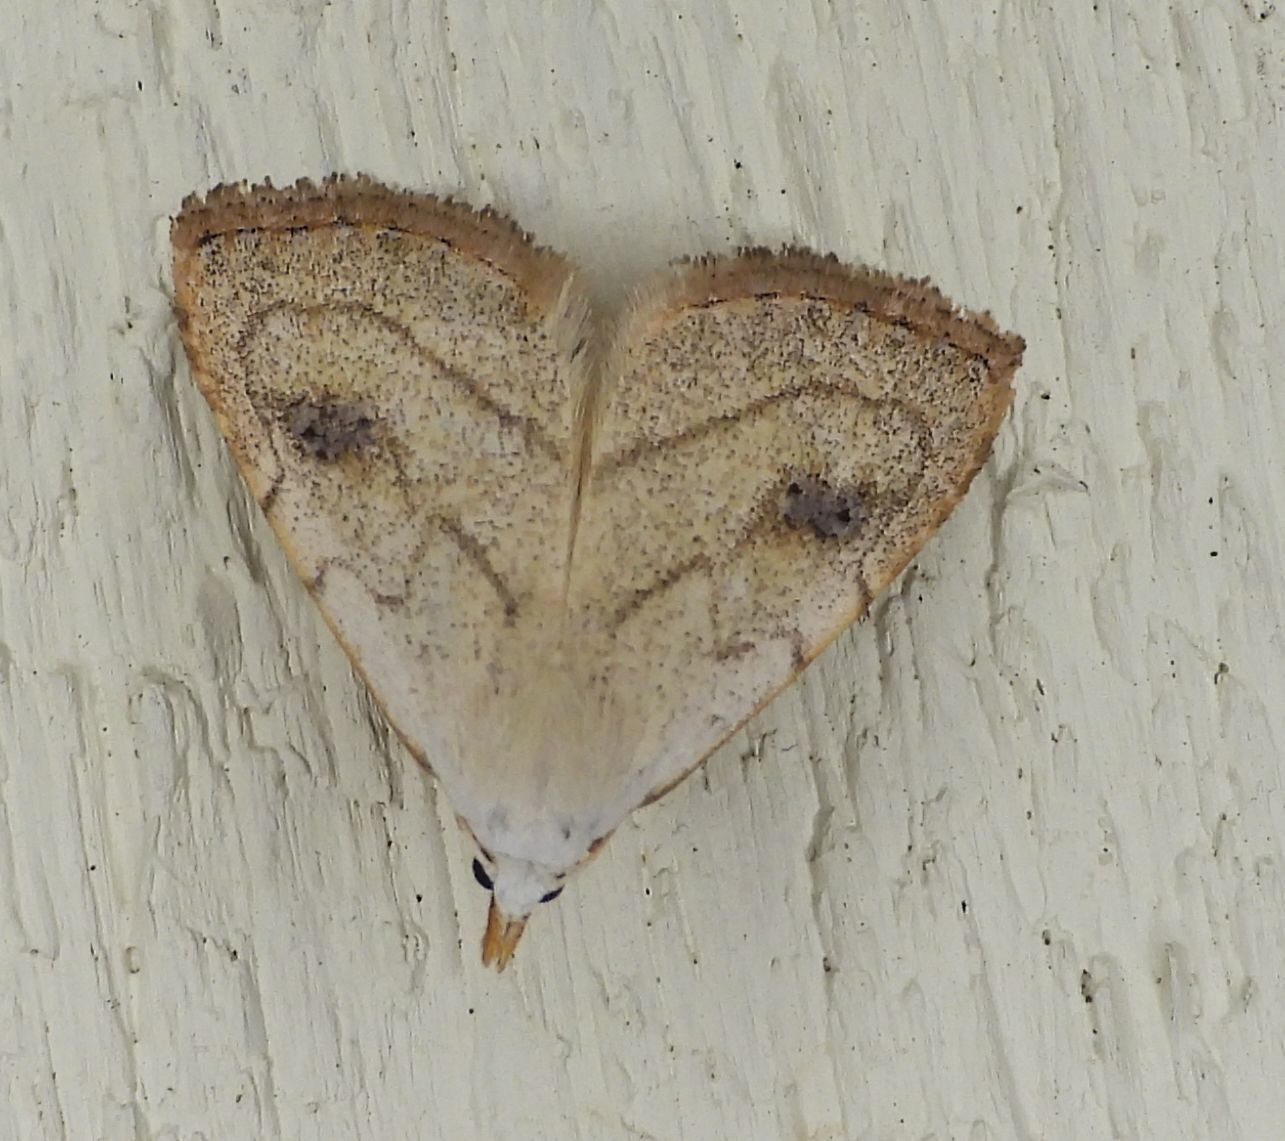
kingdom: Animalia
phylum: Arthropoda
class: Insecta
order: Lepidoptera
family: Erebidae
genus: Rivula
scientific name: Rivula propinqualis
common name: Spotted grass moth
